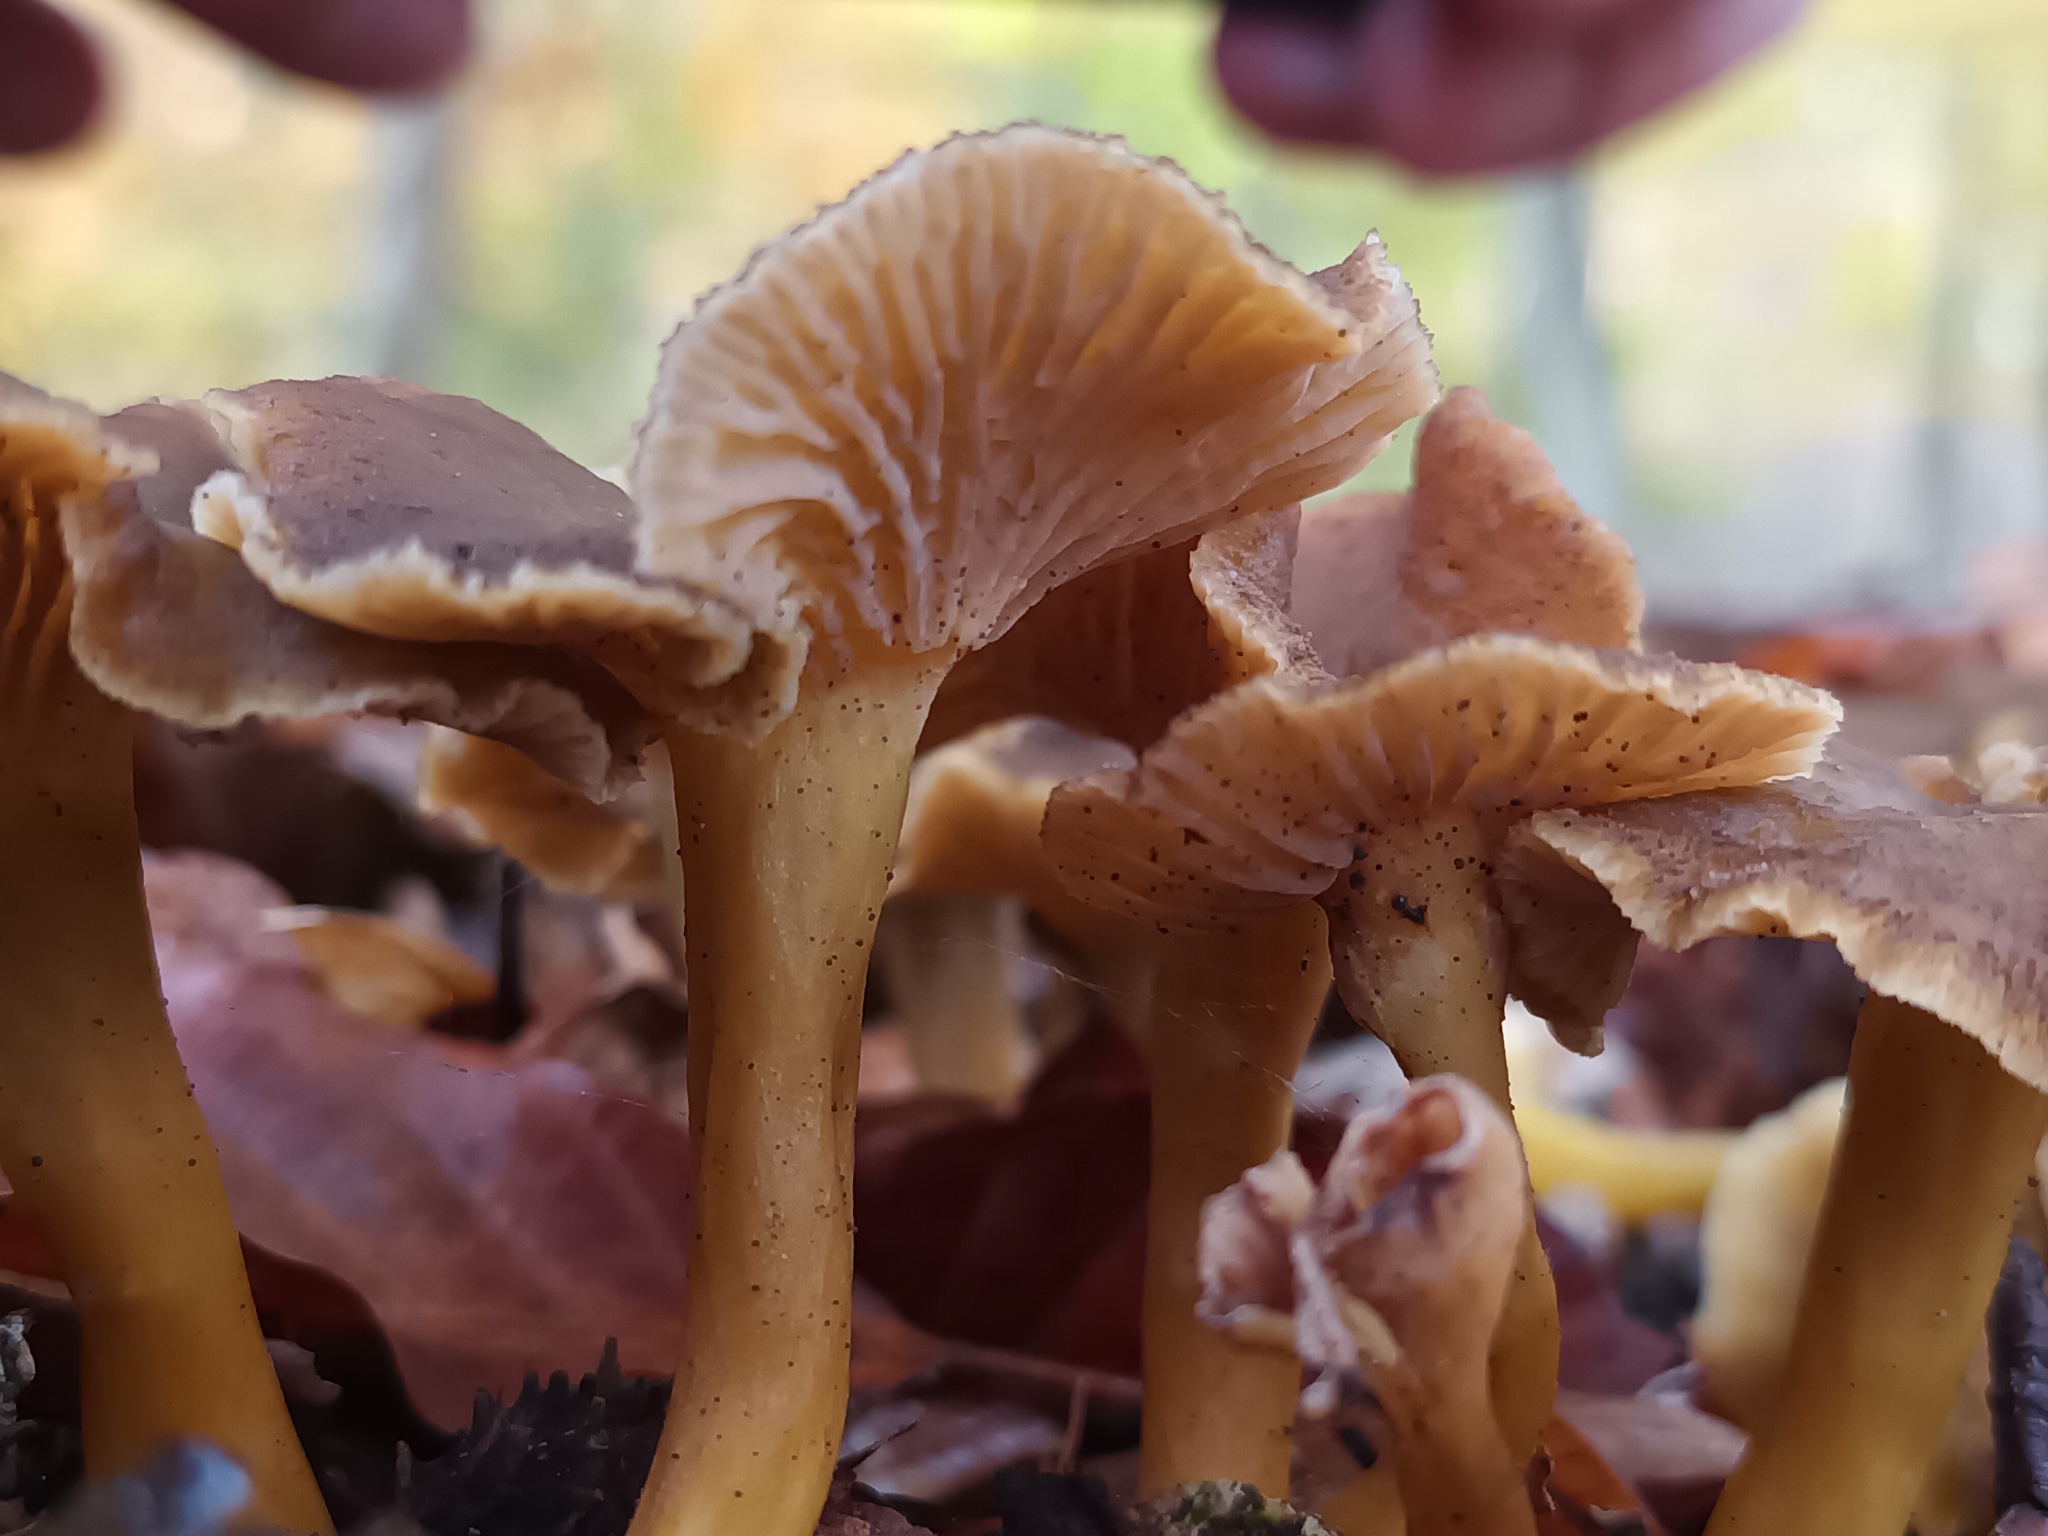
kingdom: Fungi
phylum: Basidiomycota
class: Agaricomycetes
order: Cantharellales
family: Hydnaceae
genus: Craterellus
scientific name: Craterellus tubaeformis
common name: Yellowfoot
